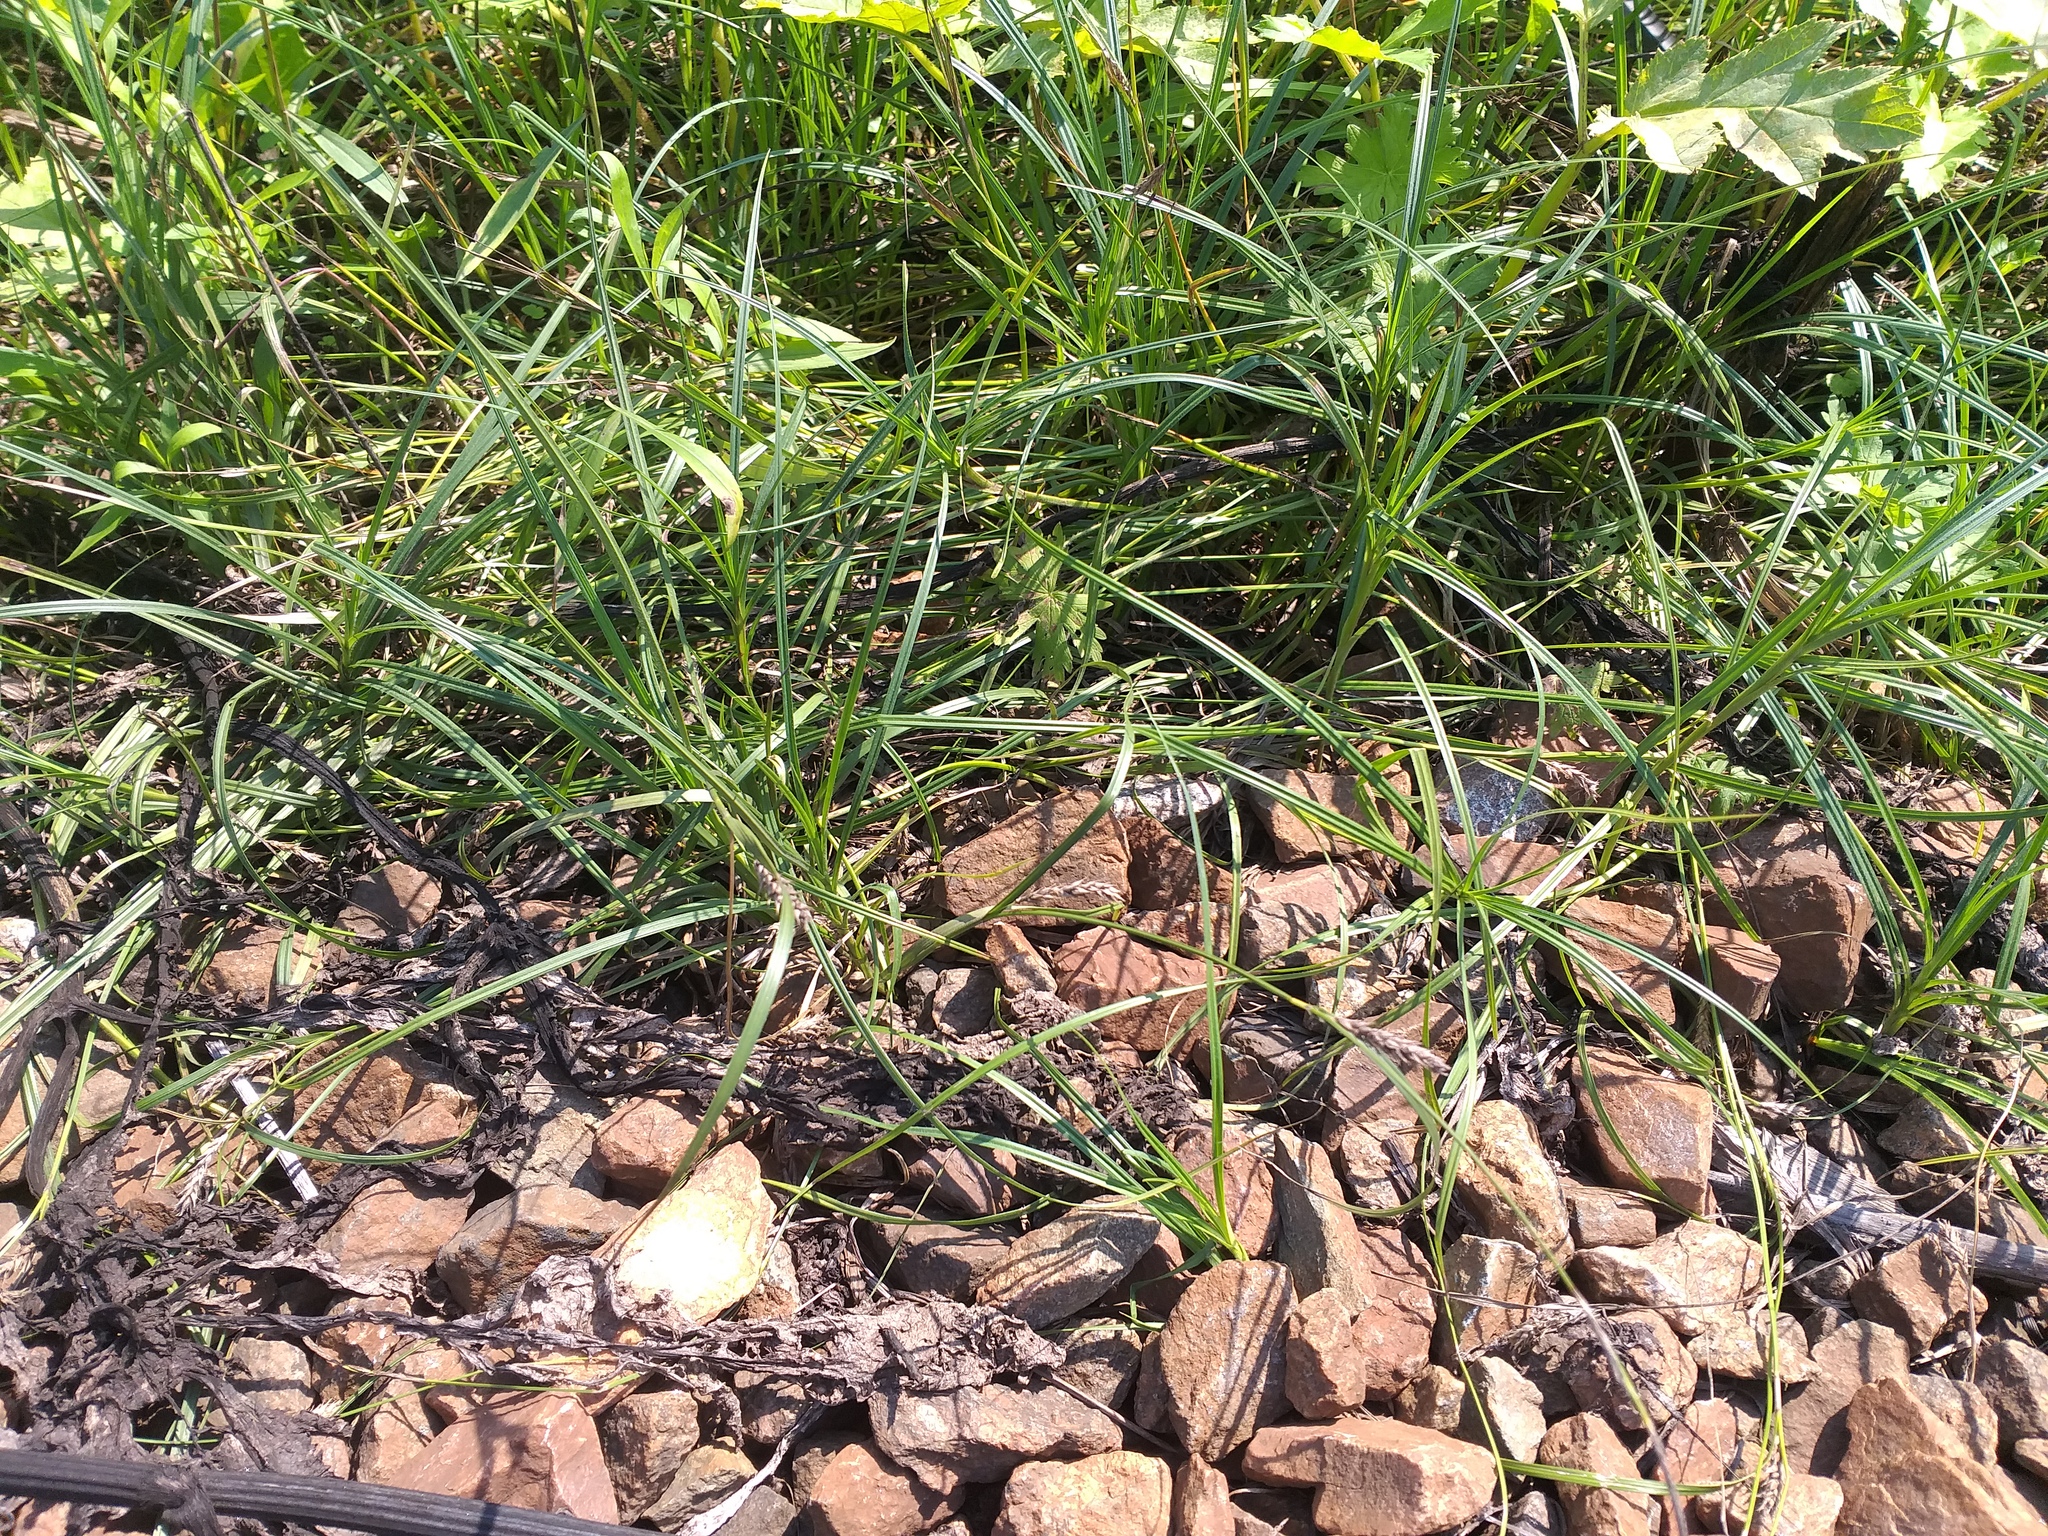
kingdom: Plantae
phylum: Tracheophyta
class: Liliopsida
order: Poales
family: Cyperaceae
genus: Carex
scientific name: Carex hirta
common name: Hairy sedge
